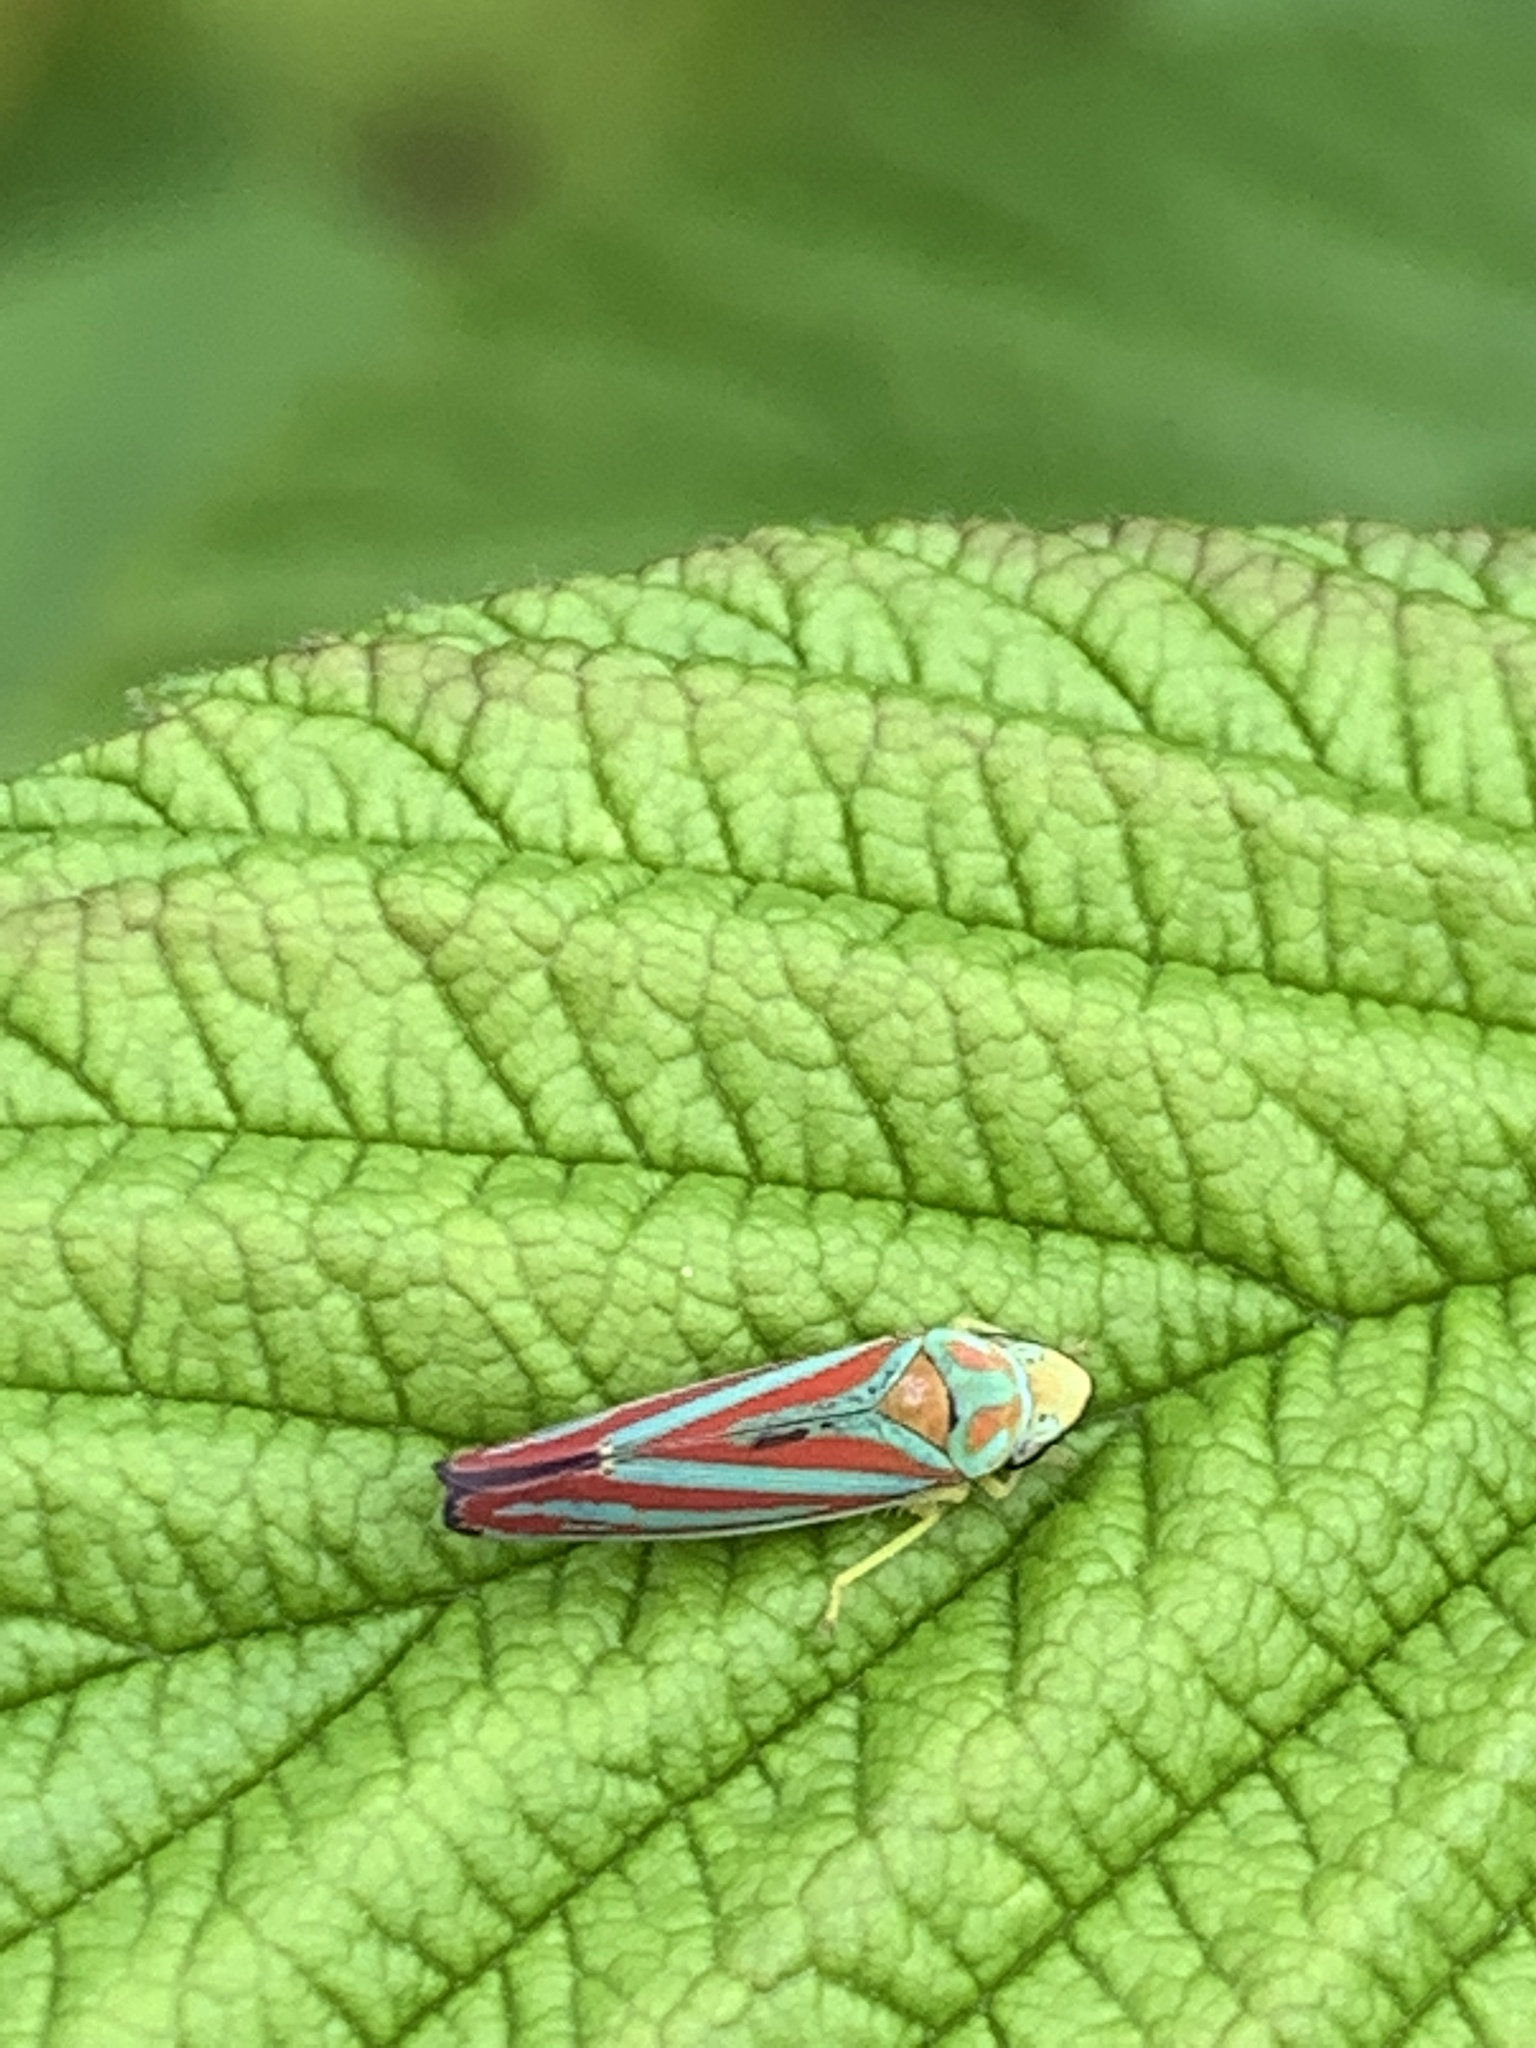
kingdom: Animalia
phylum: Arthropoda
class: Insecta
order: Hemiptera
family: Cicadellidae
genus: Graphocephala
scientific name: Graphocephala coccinea
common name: Candy-striped leafhopper
